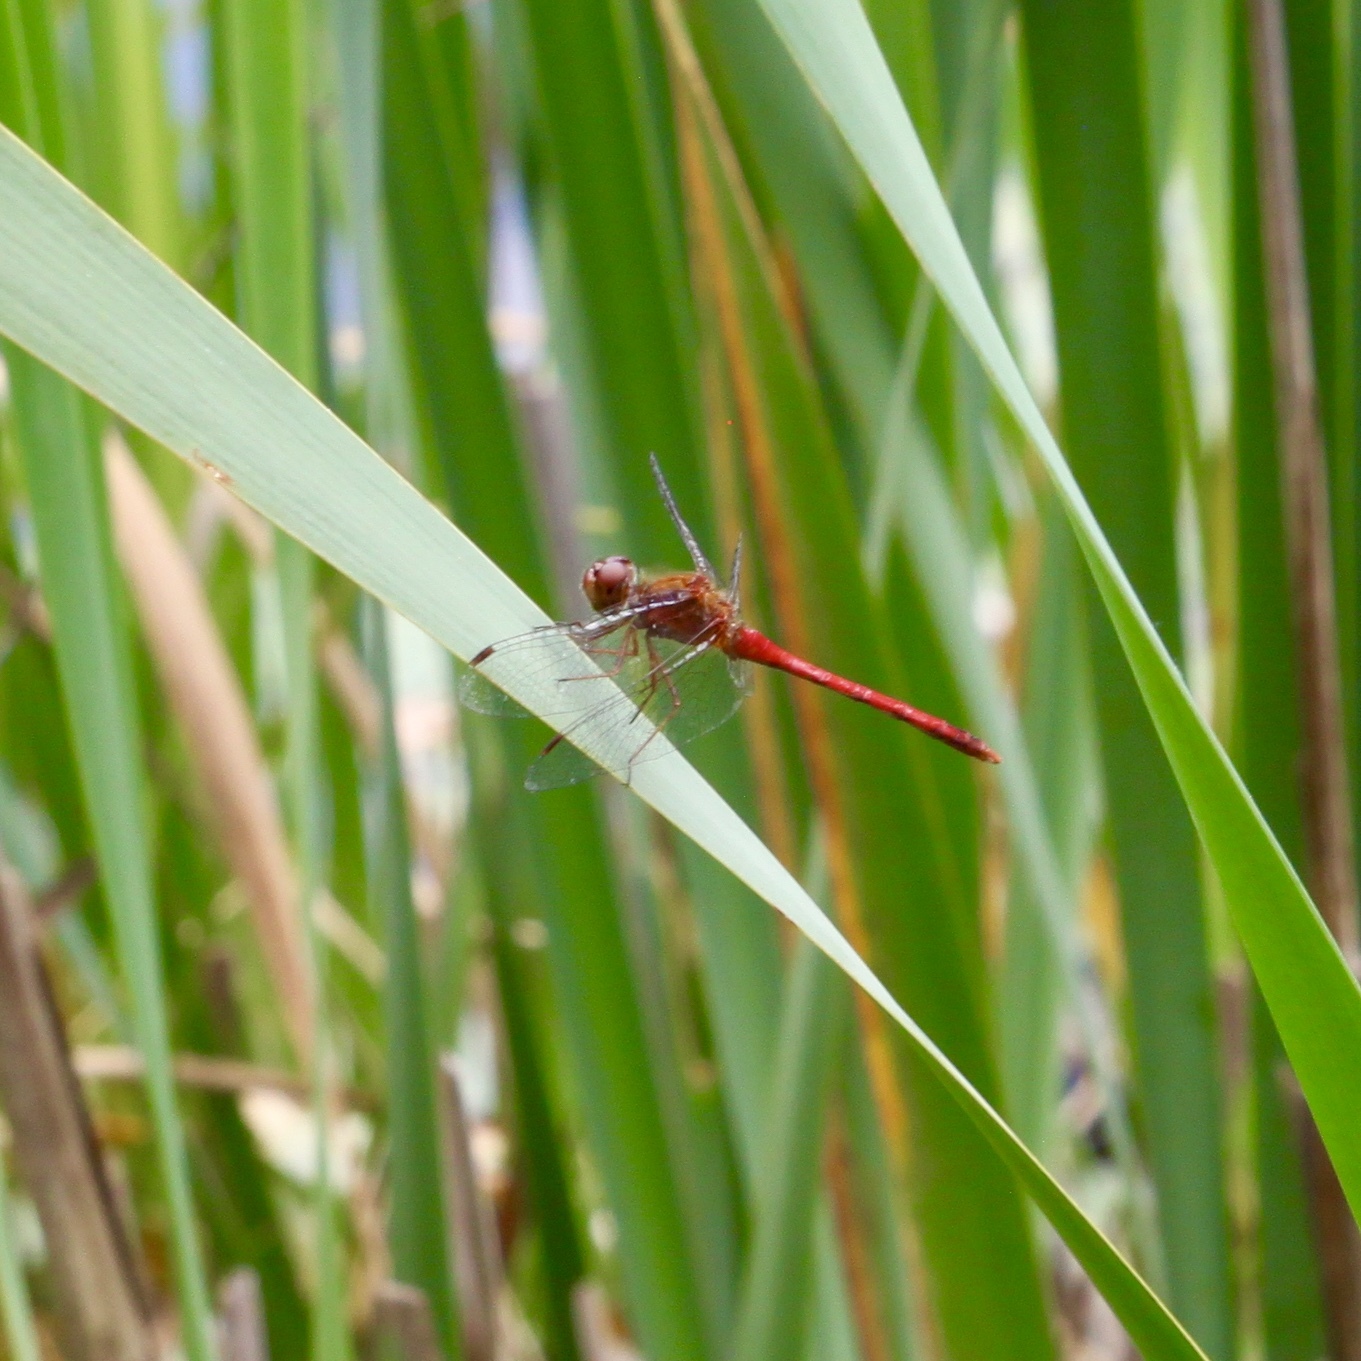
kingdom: Animalia
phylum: Arthropoda
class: Insecta
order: Odonata
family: Libellulidae
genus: Sympetrum
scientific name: Sympetrum vicinum
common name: Autumn meadowhawk
